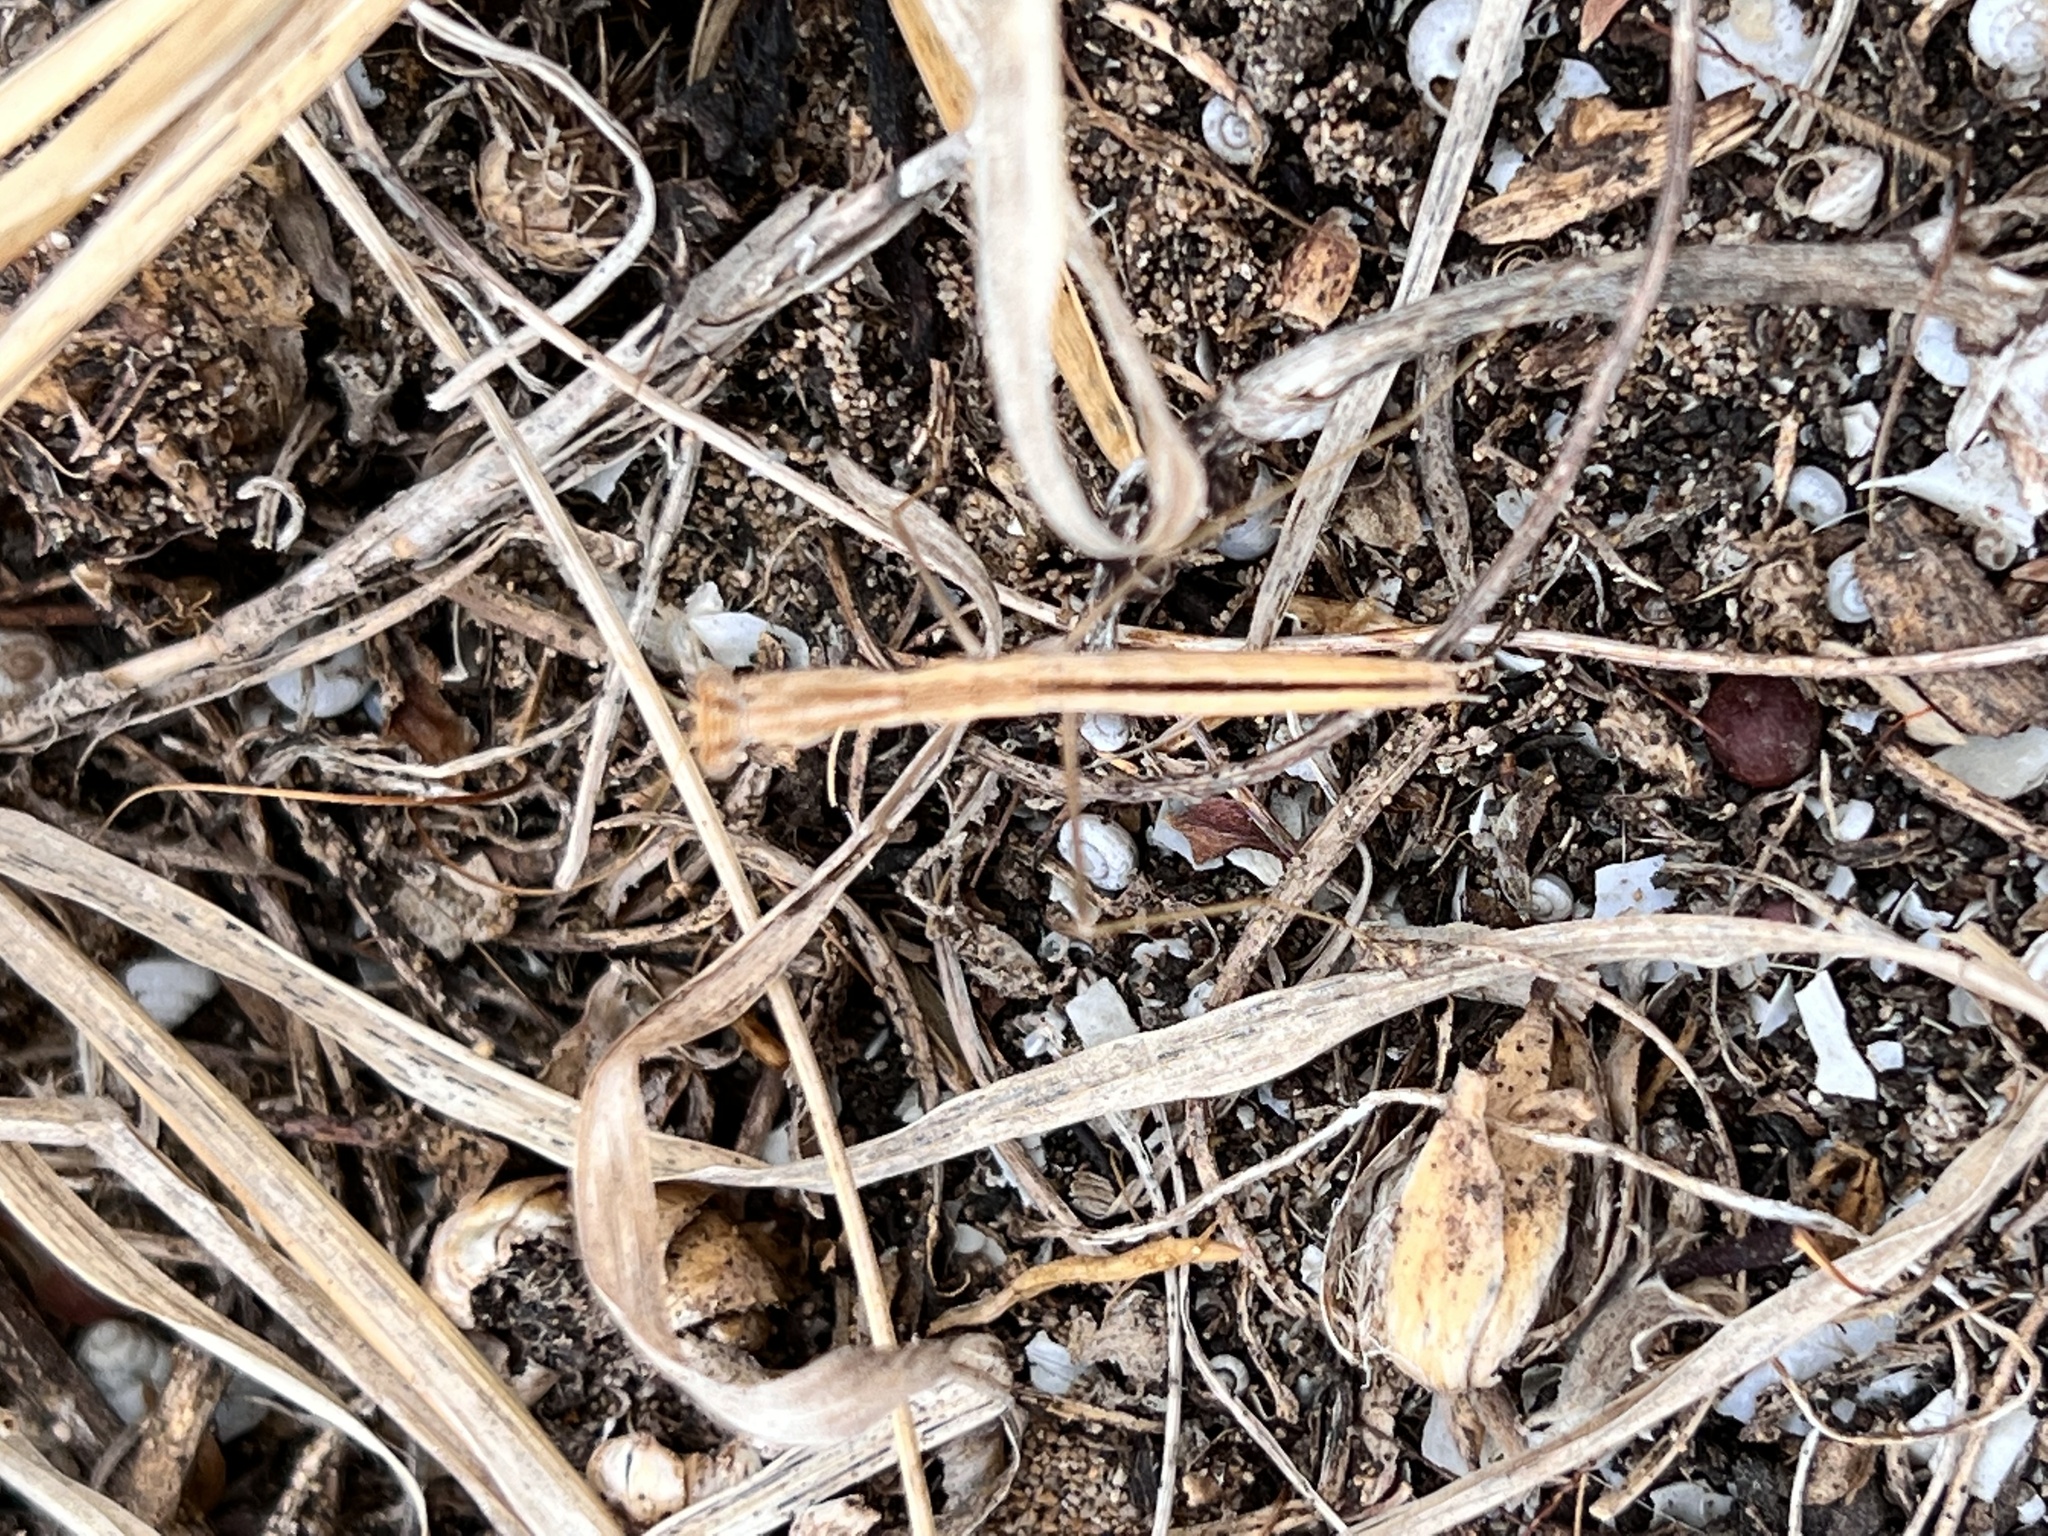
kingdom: Animalia
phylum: Arthropoda
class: Insecta
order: Mantodea
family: Rivetinidae
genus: Geomantis
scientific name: Geomantis larvoides
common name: Wingless ground mantis
